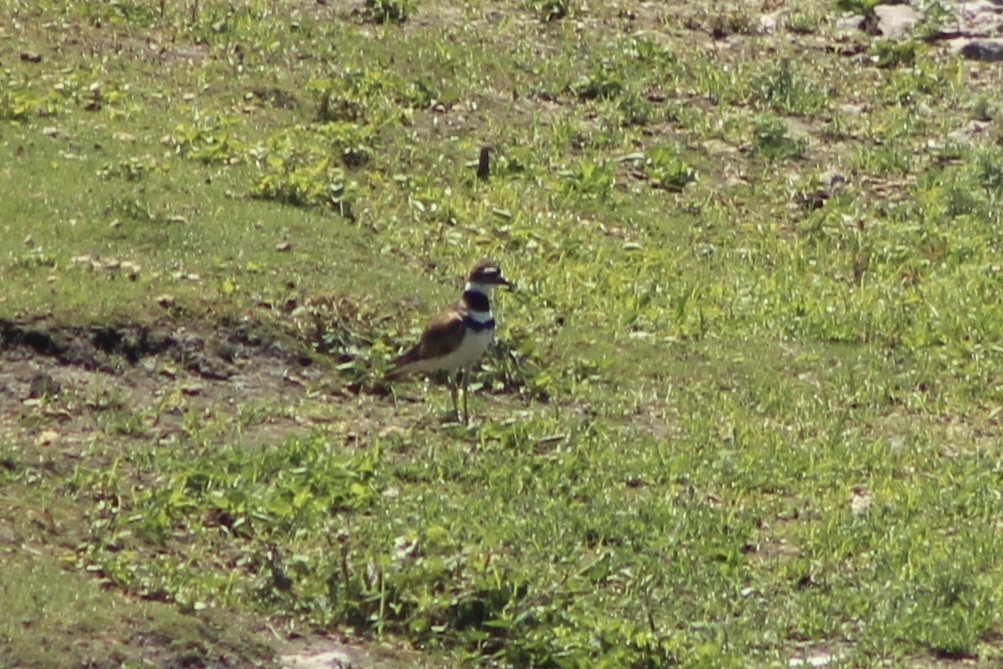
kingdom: Animalia
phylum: Chordata
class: Aves
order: Charadriiformes
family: Charadriidae
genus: Charadrius
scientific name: Charadrius vociferus
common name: Killdeer
